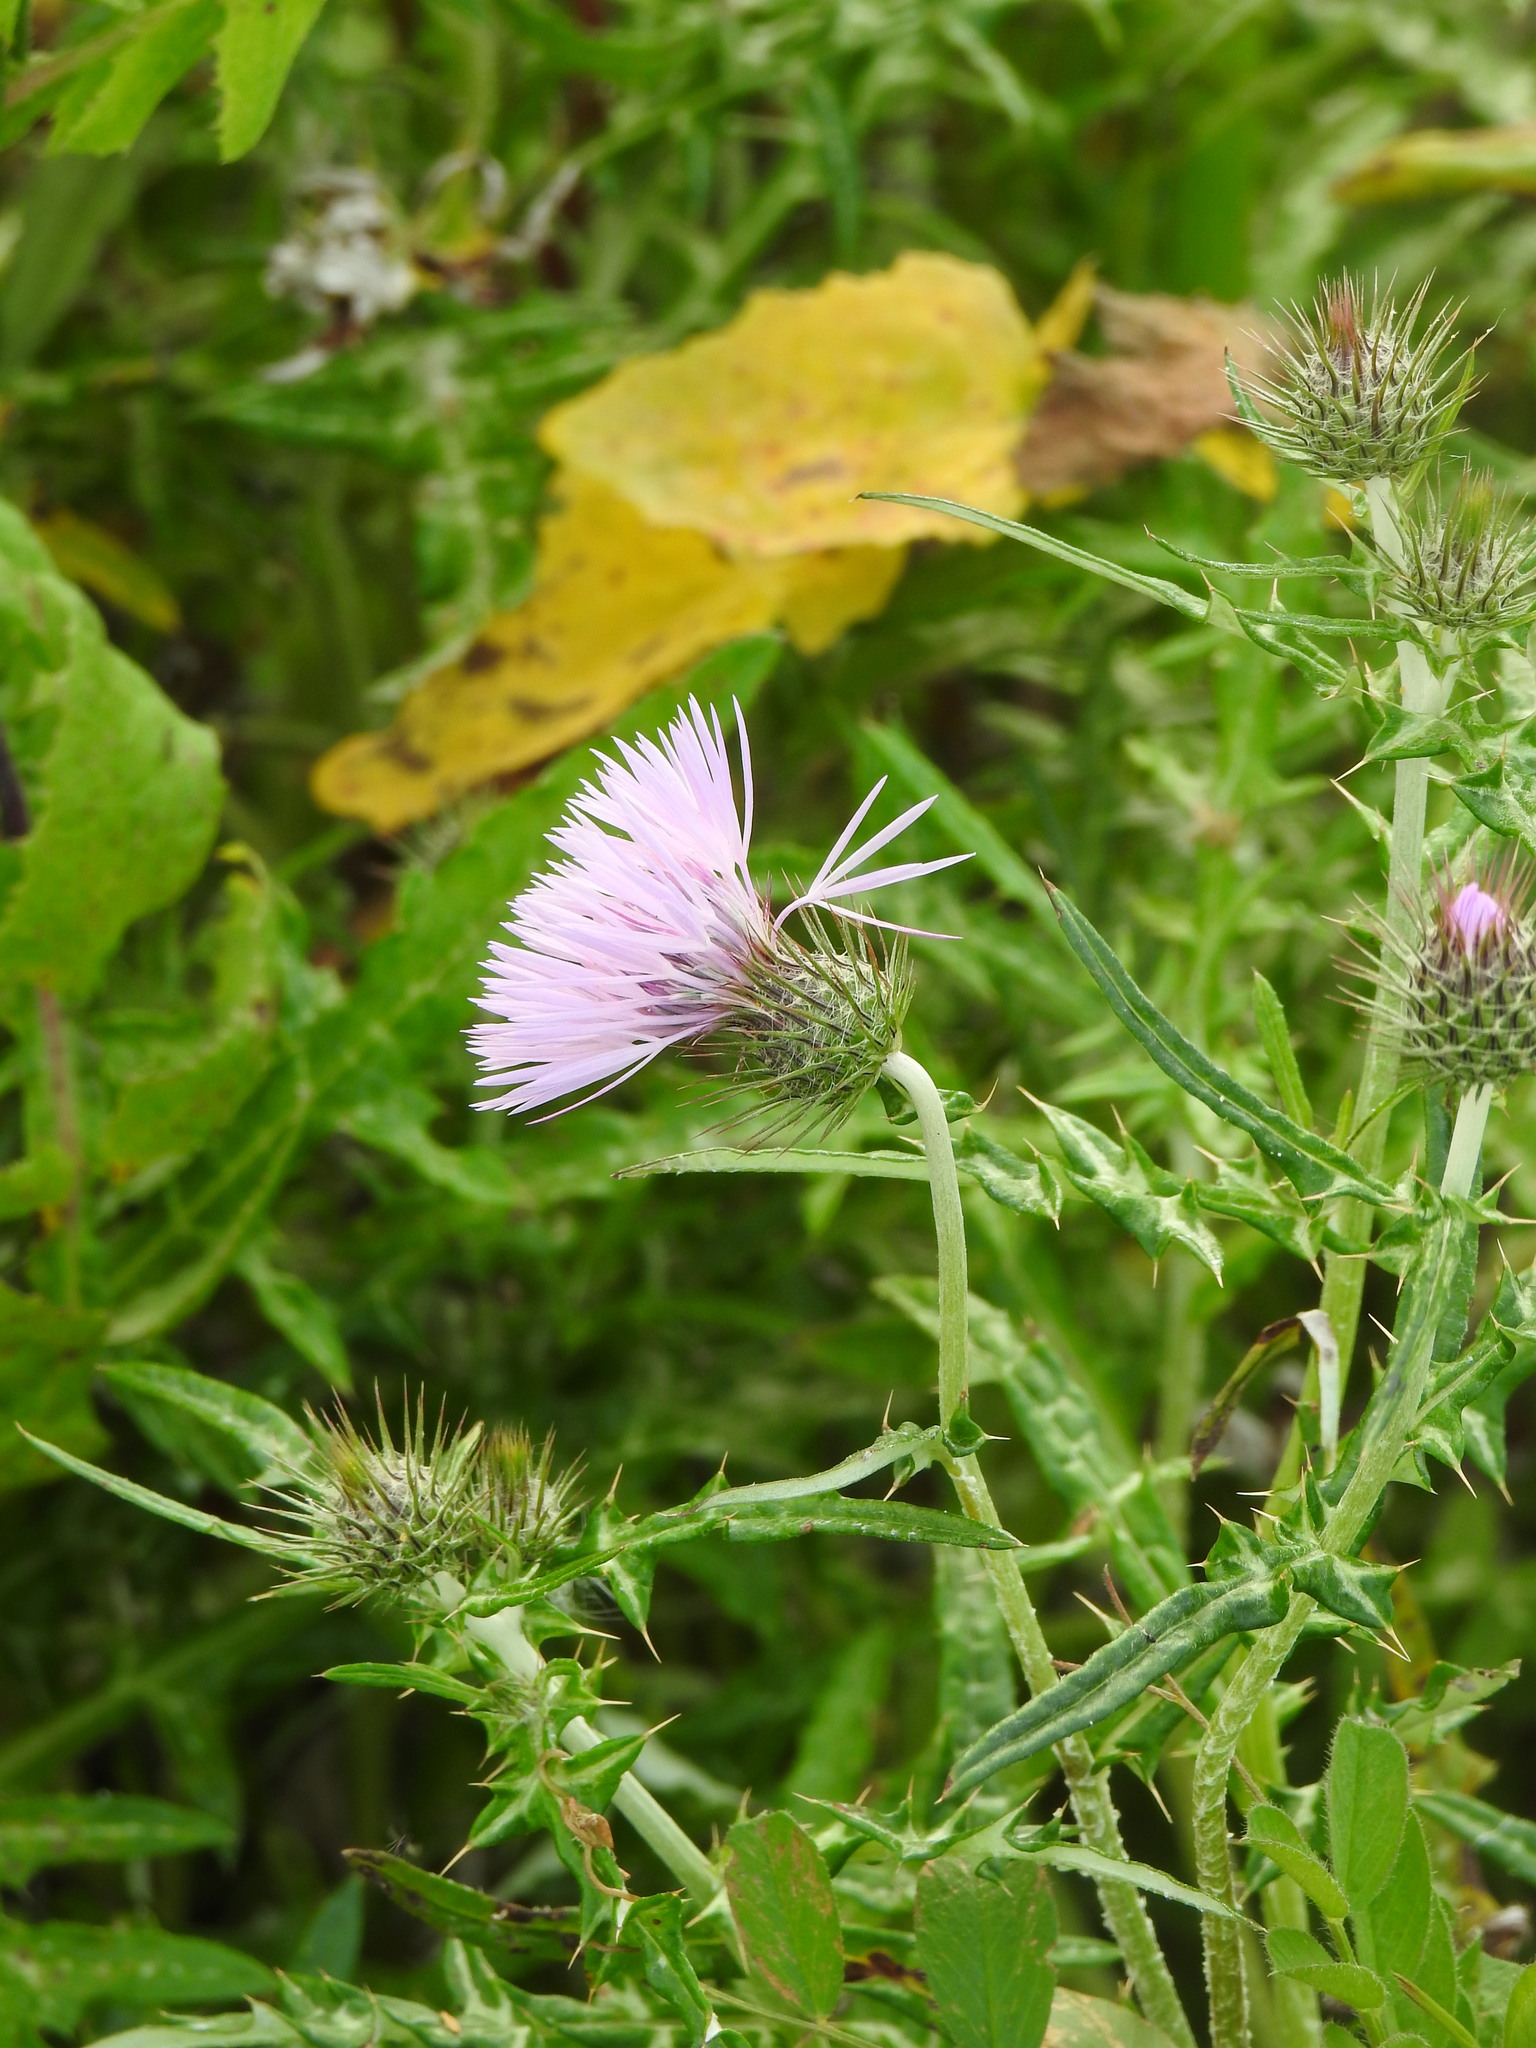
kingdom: Plantae
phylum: Tracheophyta
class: Magnoliopsida
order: Asterales
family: Asteraceae
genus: Galactites
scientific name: Galactites tomentosa
